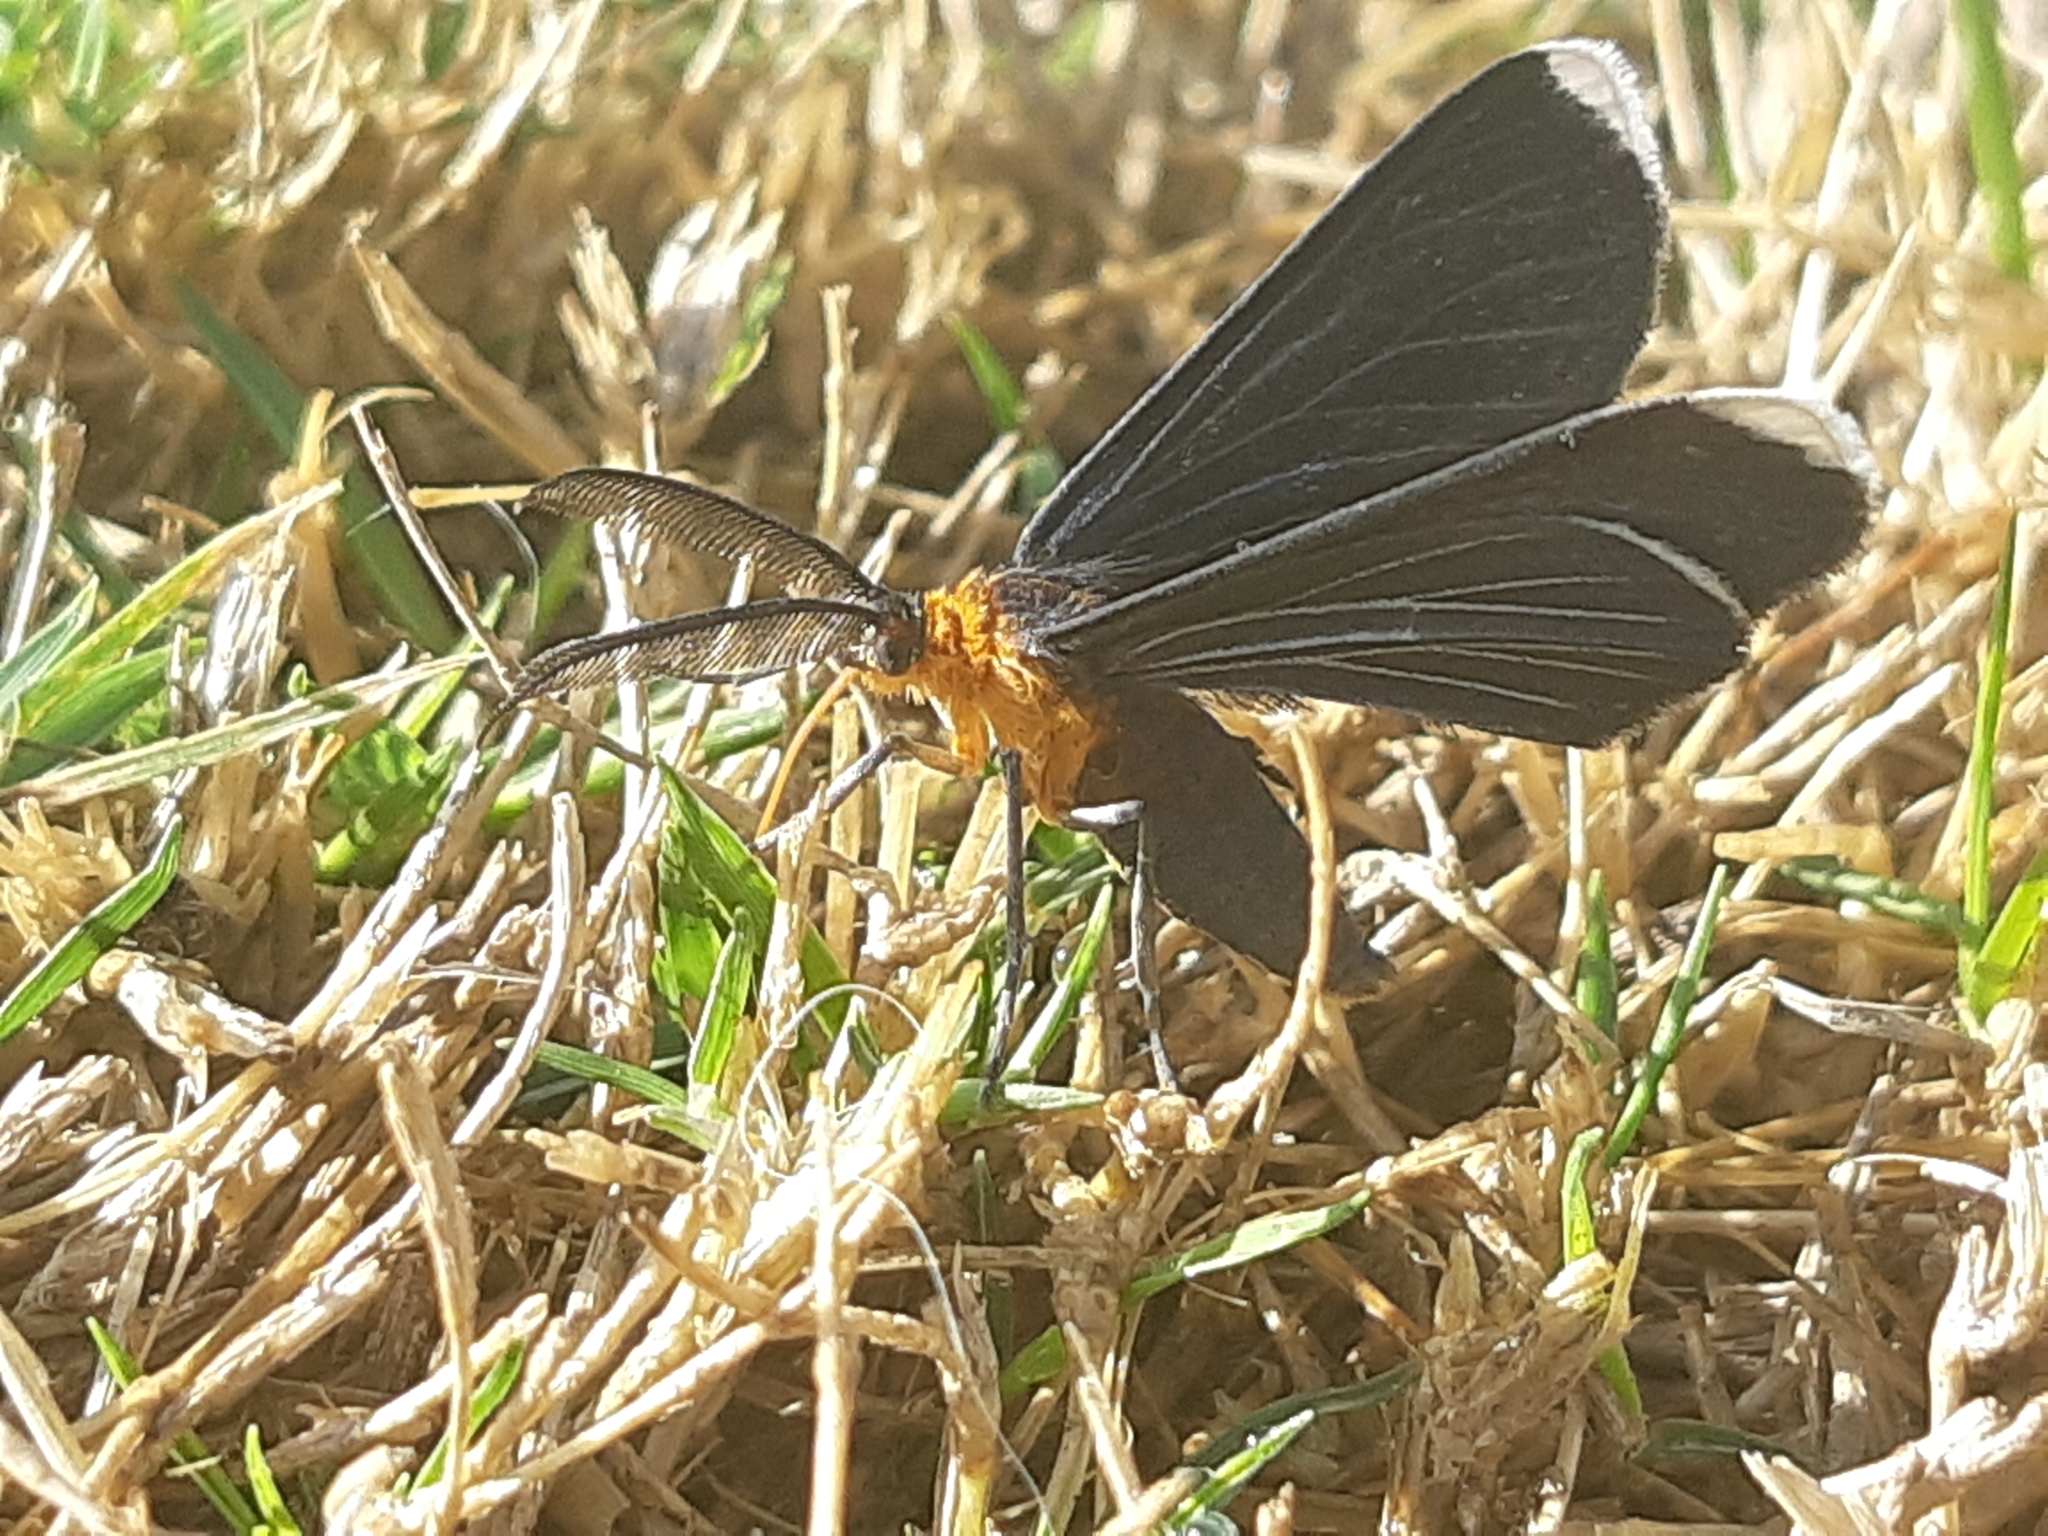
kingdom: Animalia
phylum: Arthropoda
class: Insecta
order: Lepidoptera
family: Geometridae
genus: Melanchroia
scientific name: Melanchroia chephise
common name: White-tipped black
